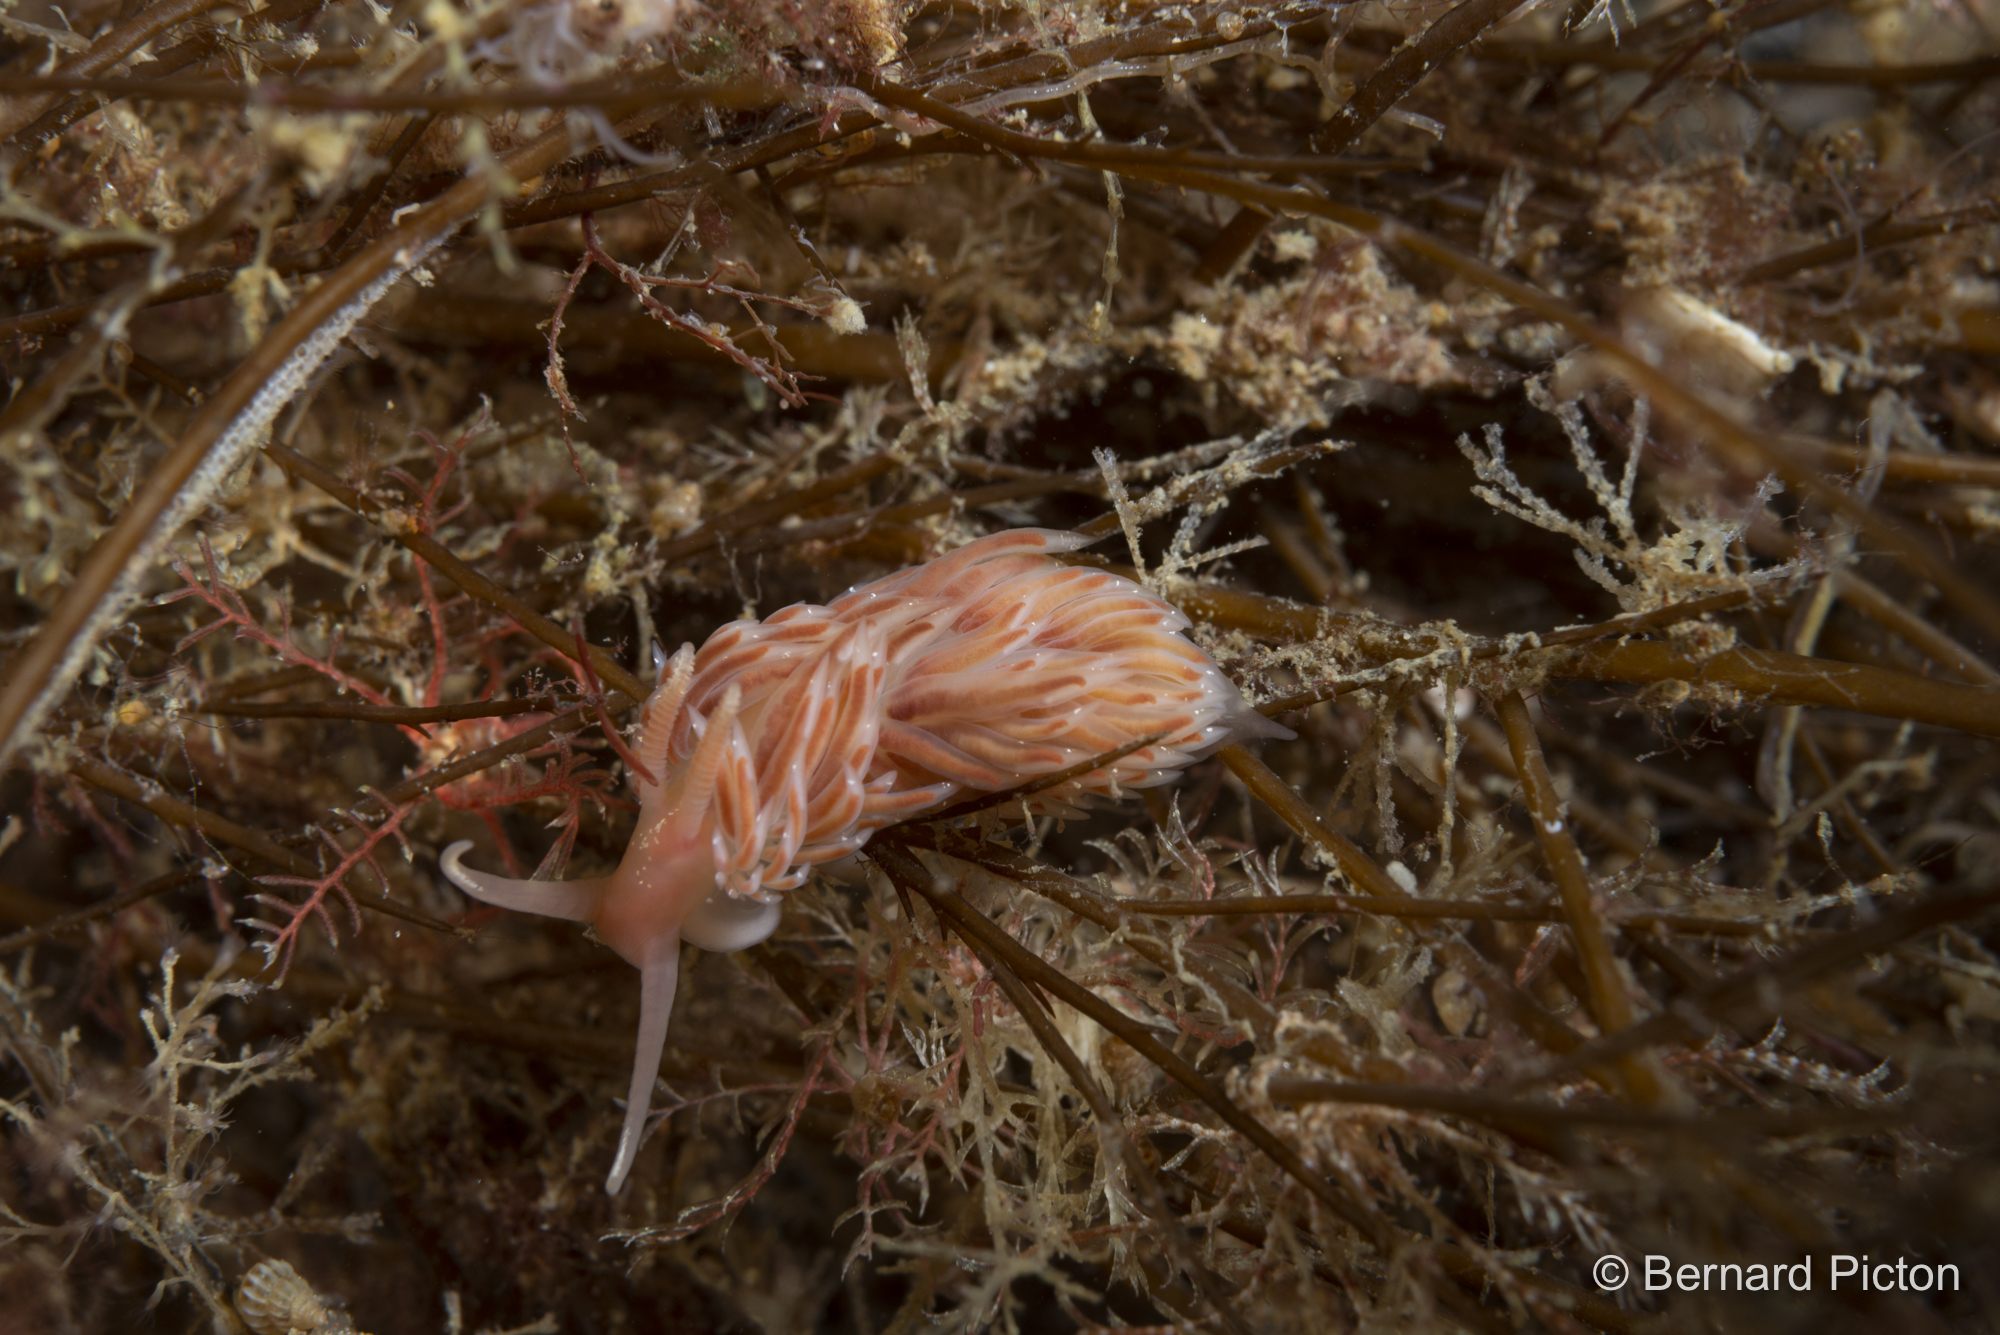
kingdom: Animalia
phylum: Mollusca
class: Gastropoda
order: Nudibranchia
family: Facelinidae
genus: Facelina
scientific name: Facelina bostoniensis
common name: Boston facelina
